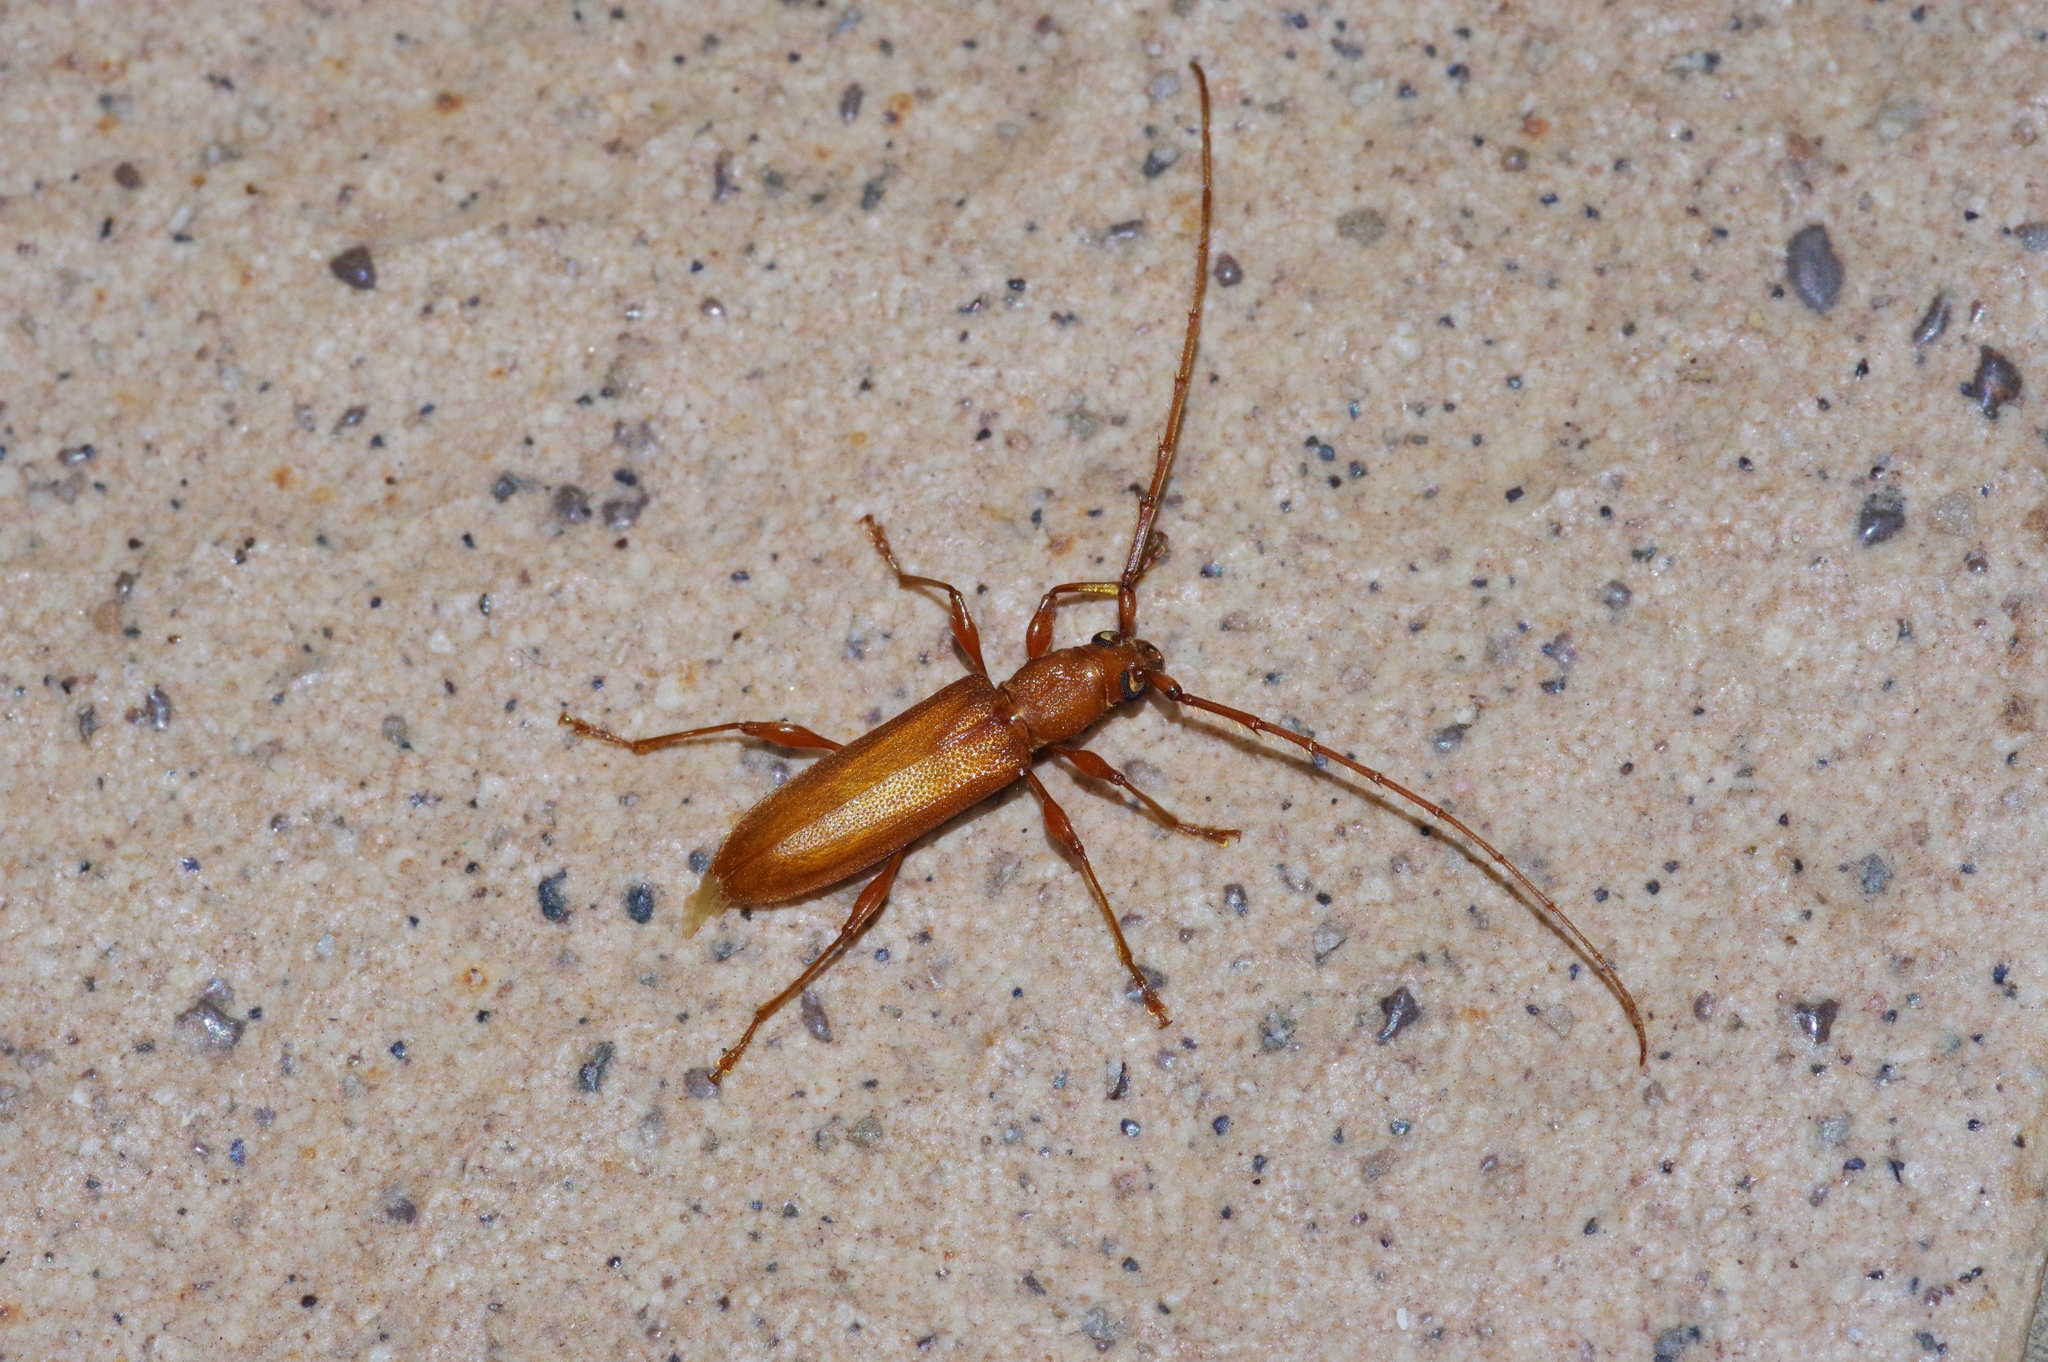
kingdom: Animalia
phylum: Arthropoda
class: Insecta
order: Coleoptera
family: Cerambycidae
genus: Nysina
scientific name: Nysina insularis
